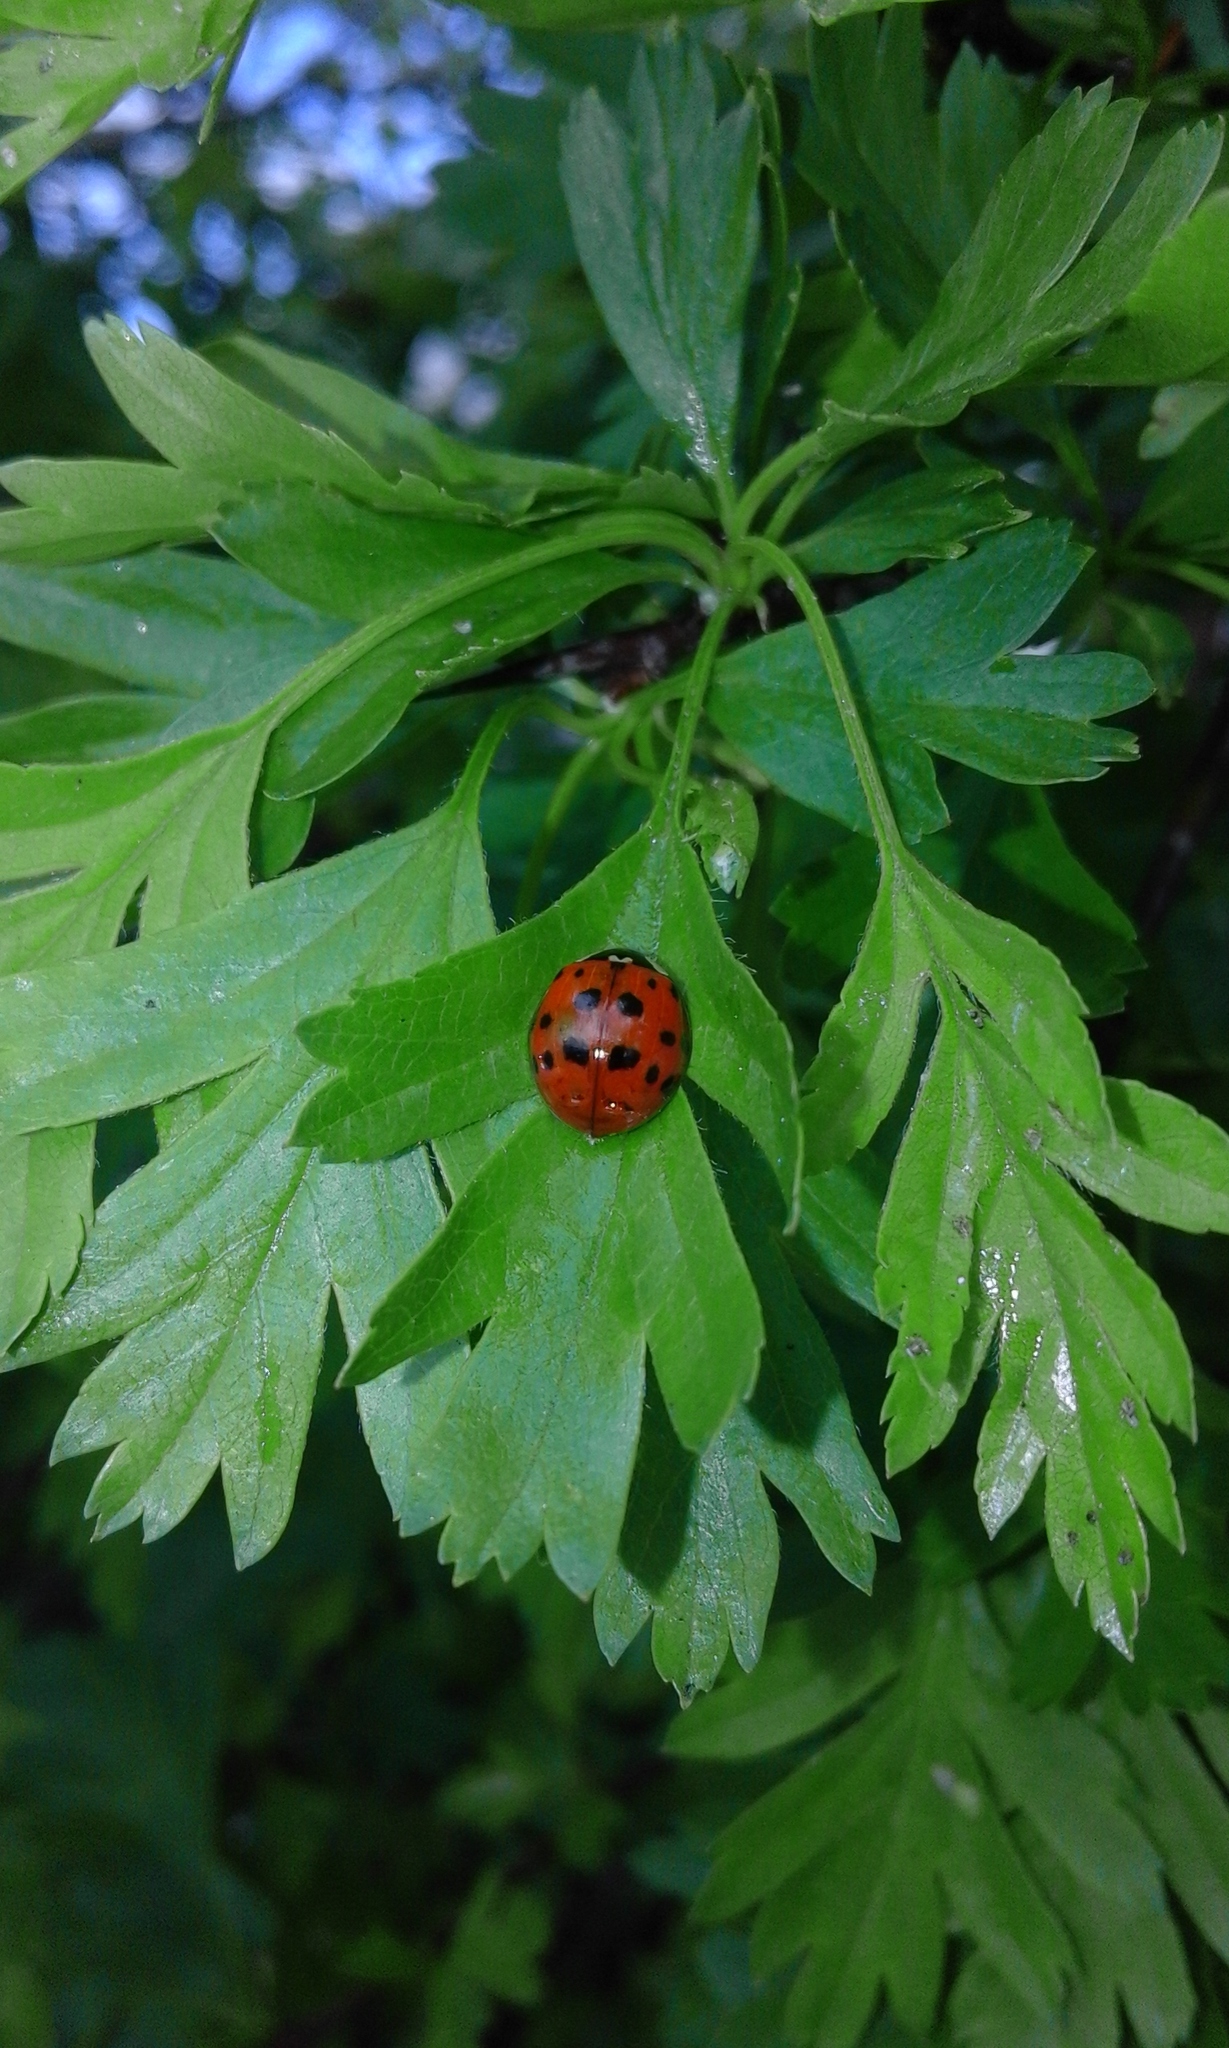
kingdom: Animalia
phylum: Arthropoda
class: Insecta
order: Coleoptera
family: Coccinellidae
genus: Harmonia
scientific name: Harmonia axyridis
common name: Harlequin ladybird
